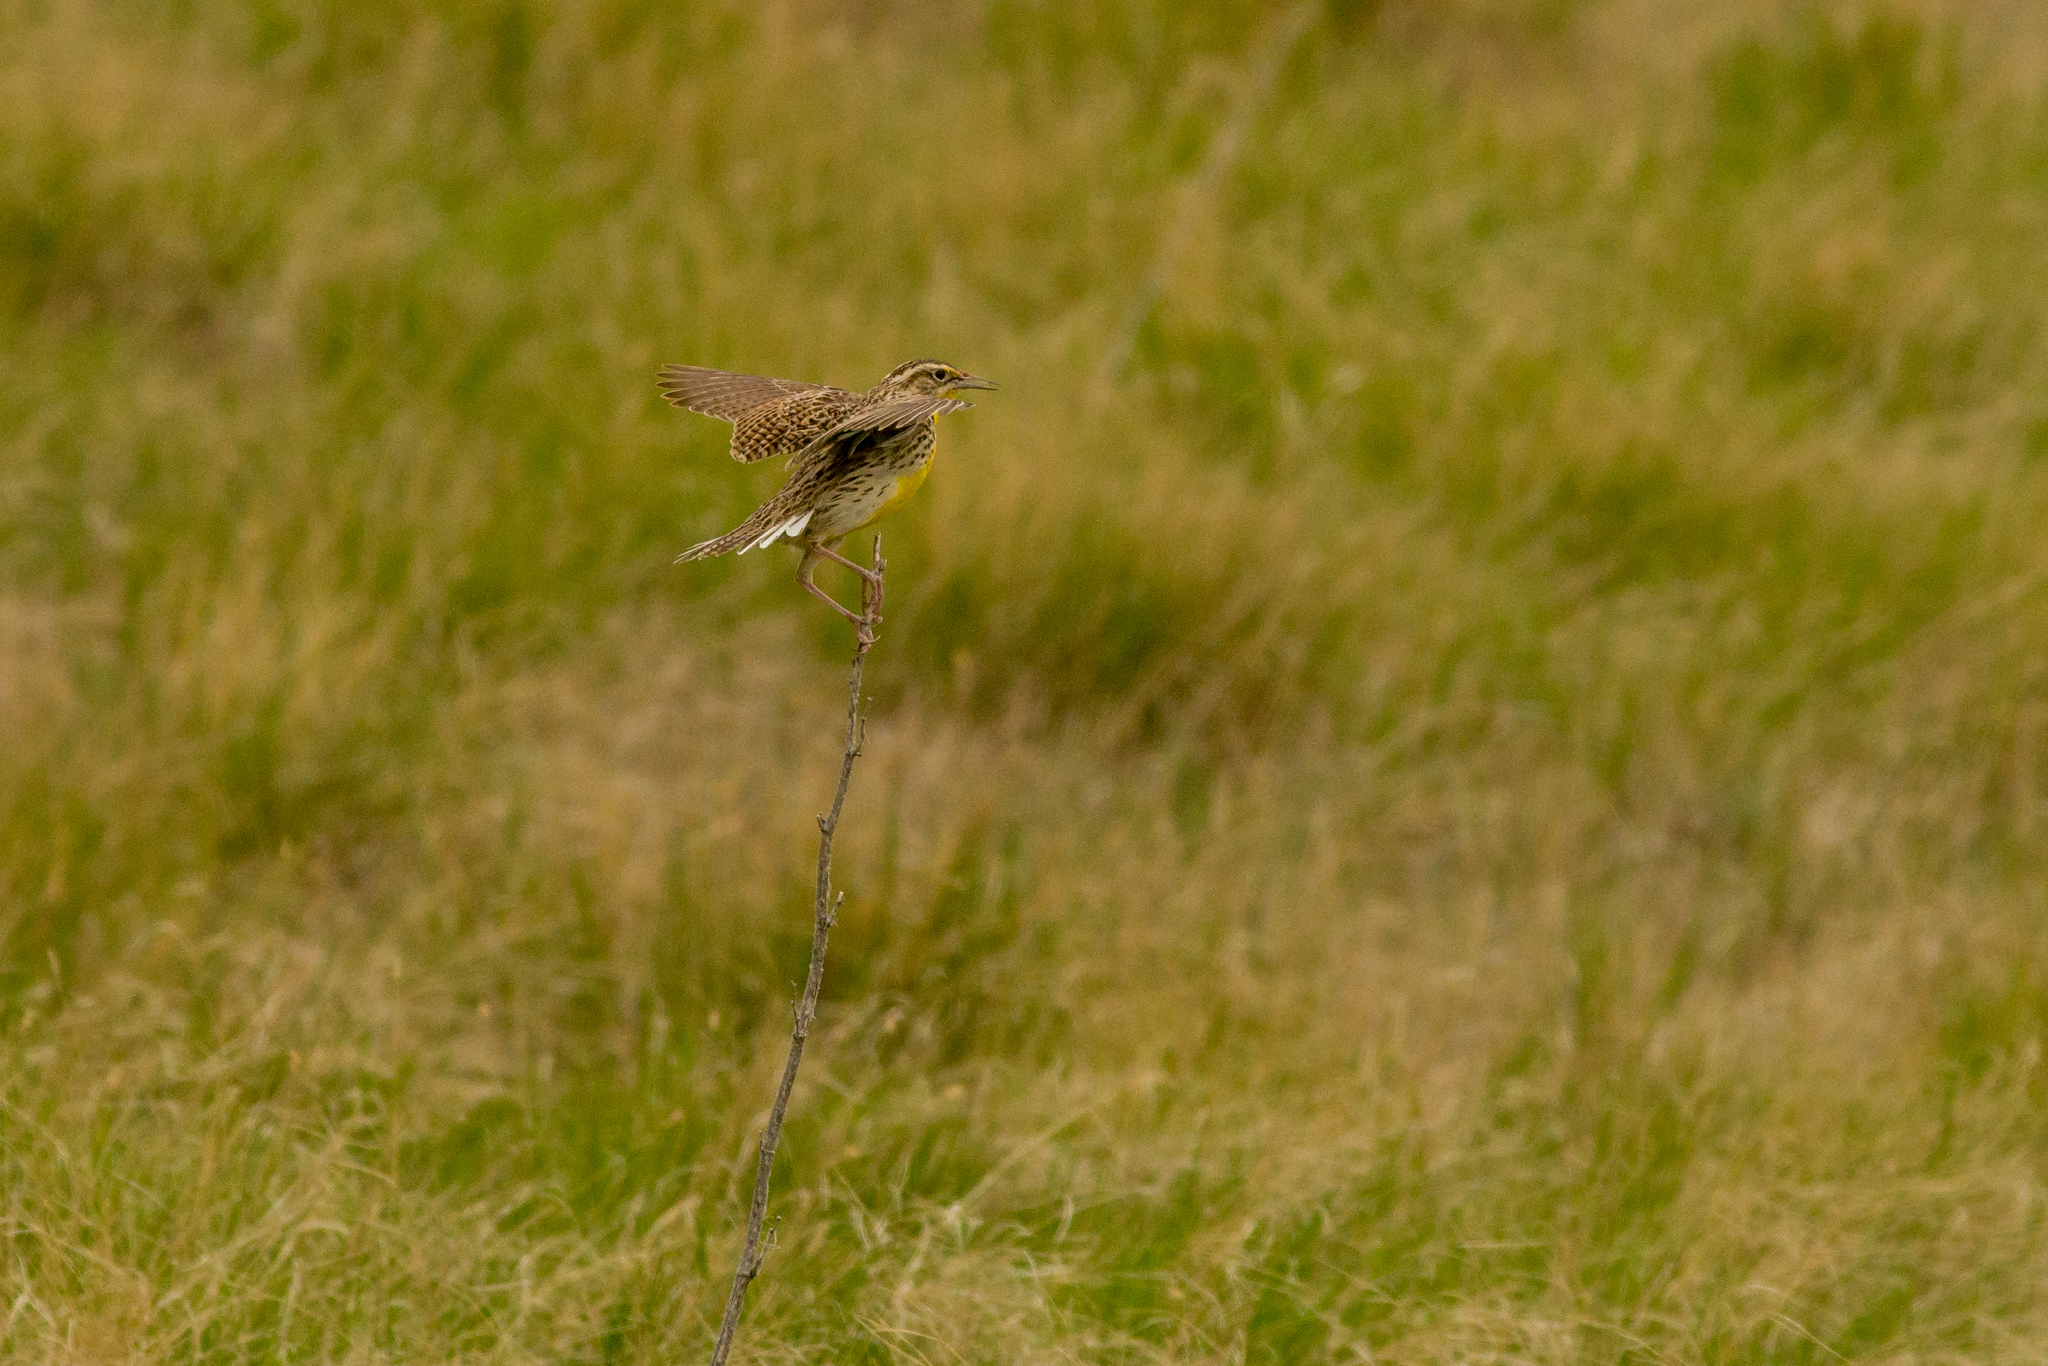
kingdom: Animalia
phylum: Chordata
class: Aves
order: Passeriformes
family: Icteridae
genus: Sturnella
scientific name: Sturnella neglecta
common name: Western meadowlark
